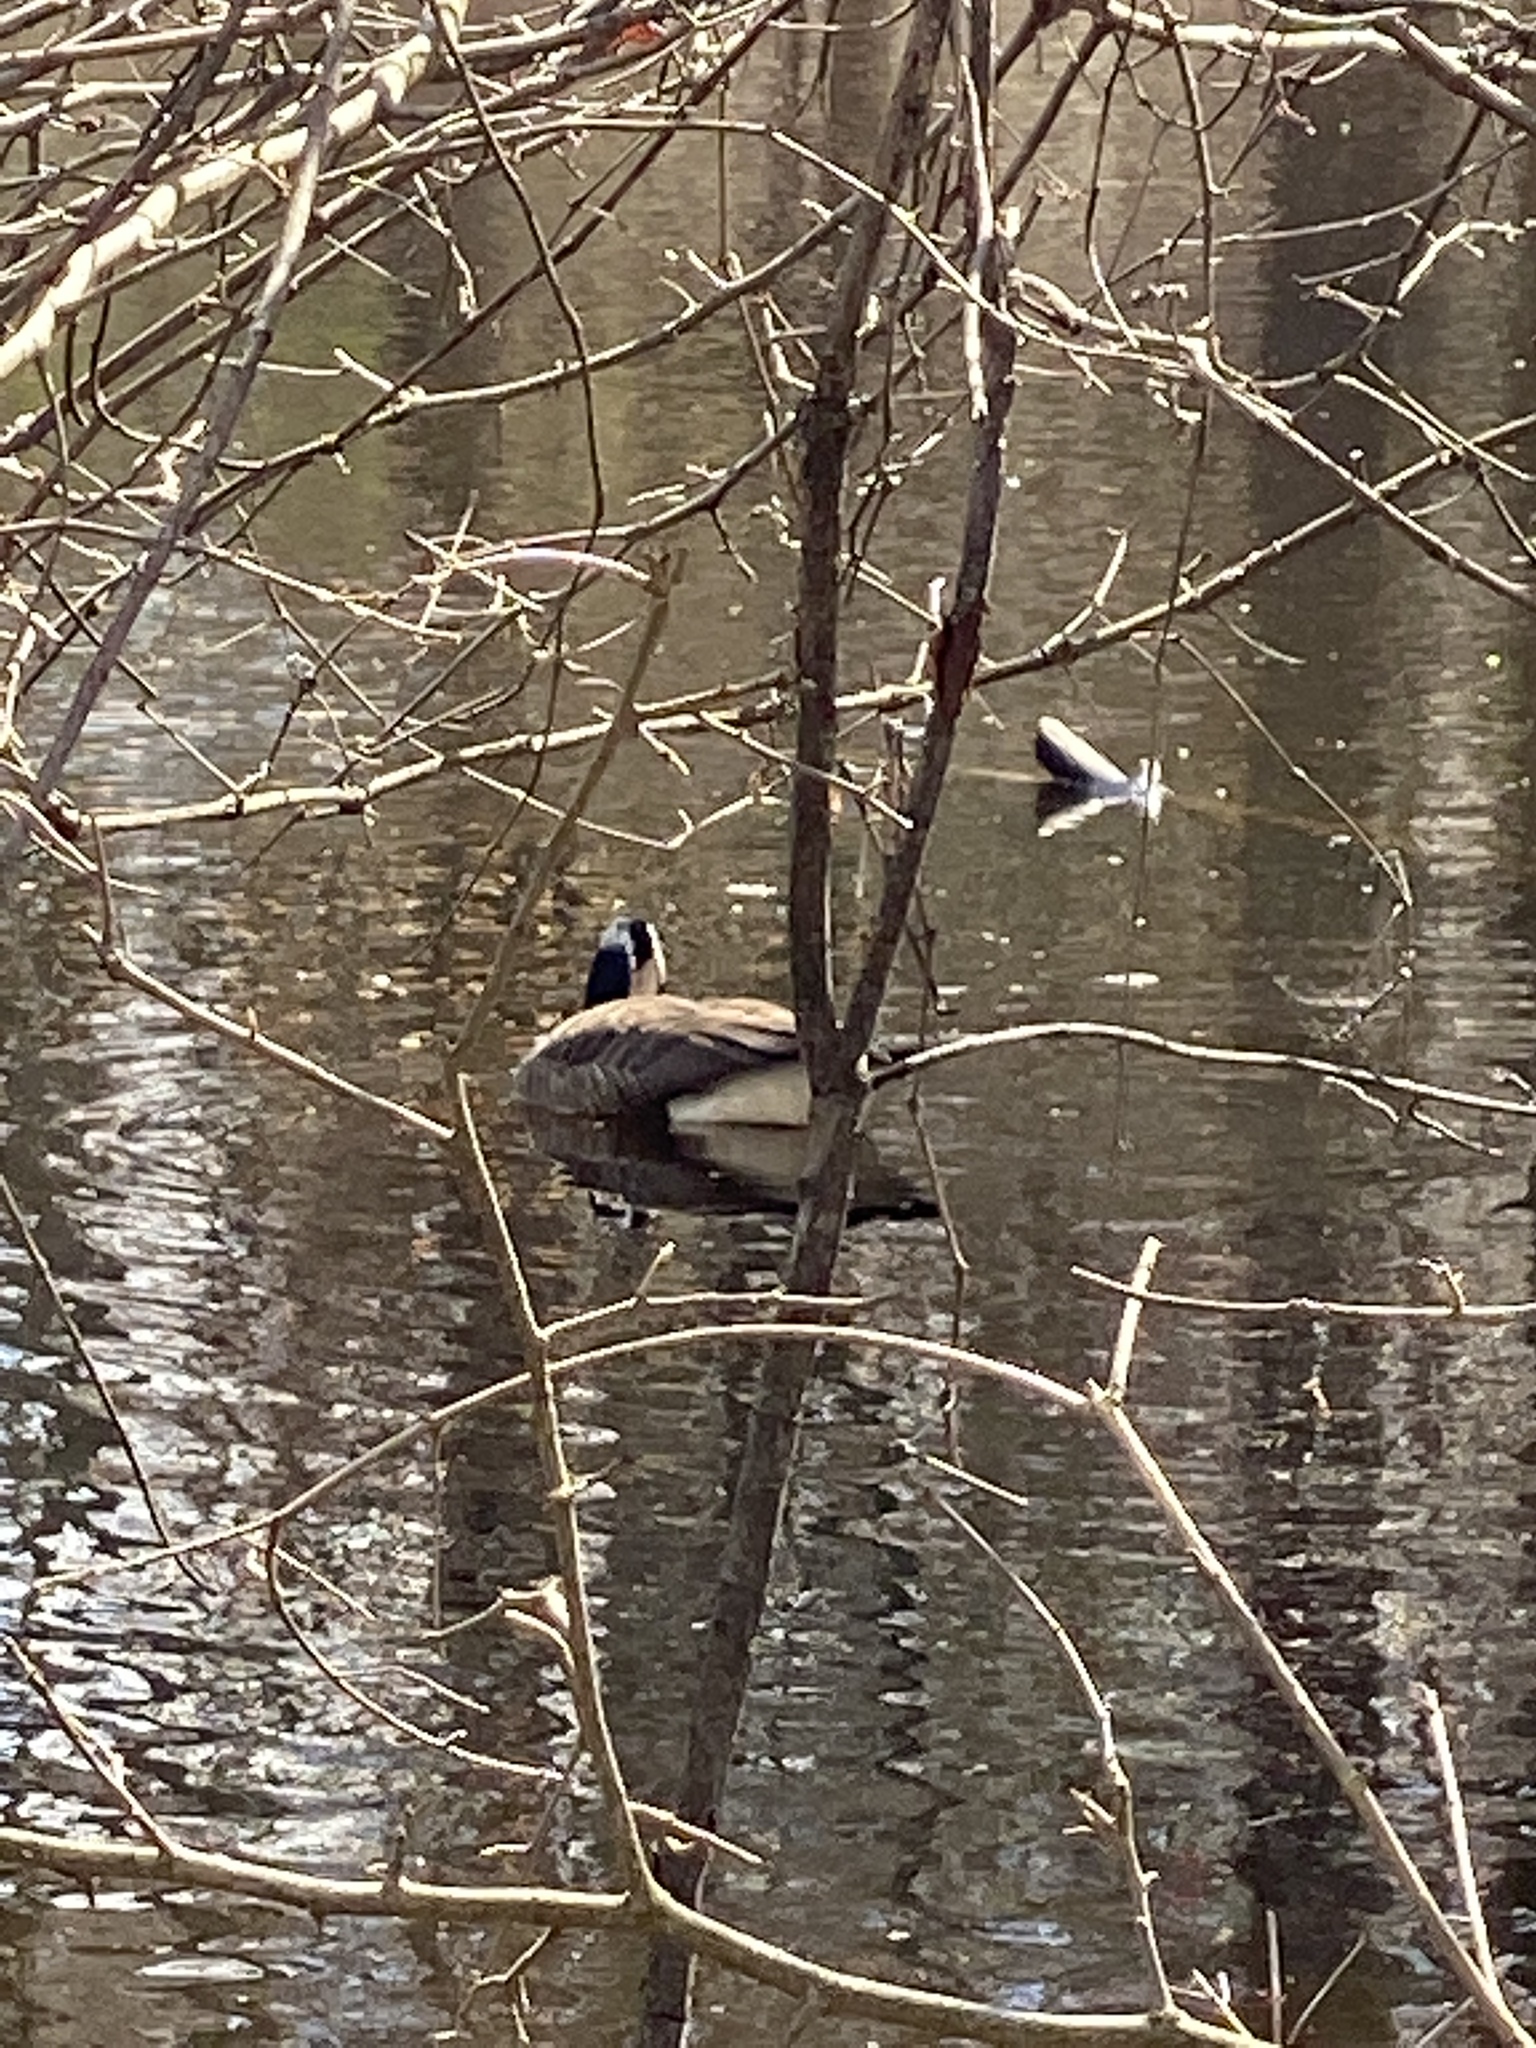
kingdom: Animalia
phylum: Chordata
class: Aves
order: Anseriformes
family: Anatidae
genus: Branta
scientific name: Branta canadensis
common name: Canada goose
